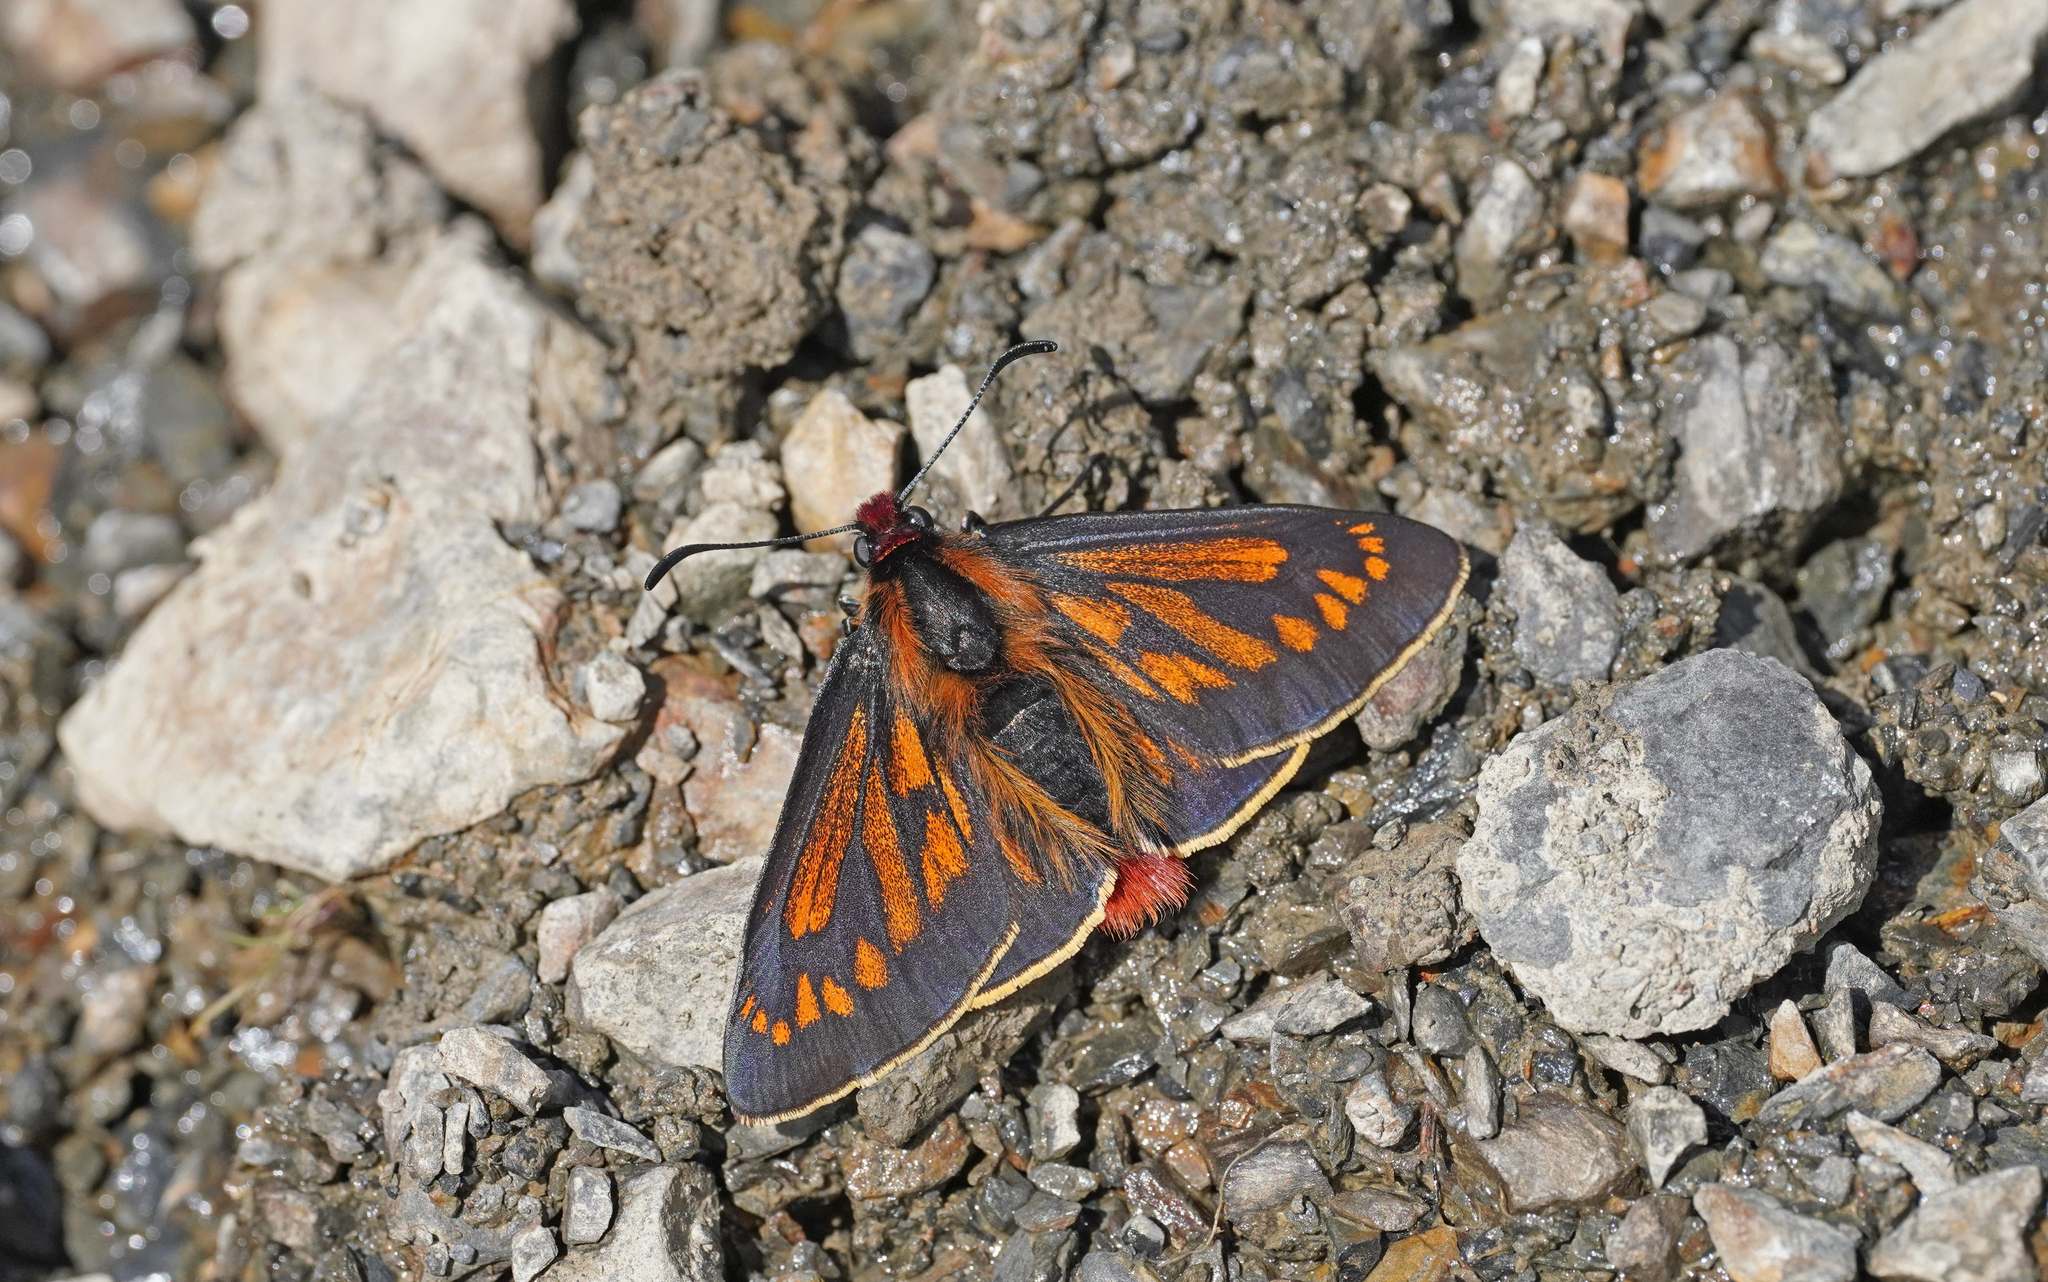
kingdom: Animalia
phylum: Arthropoda
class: Insecta
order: Lepidoptera
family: Hesperiidae
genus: Metardaris
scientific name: Metardaris cosinga
